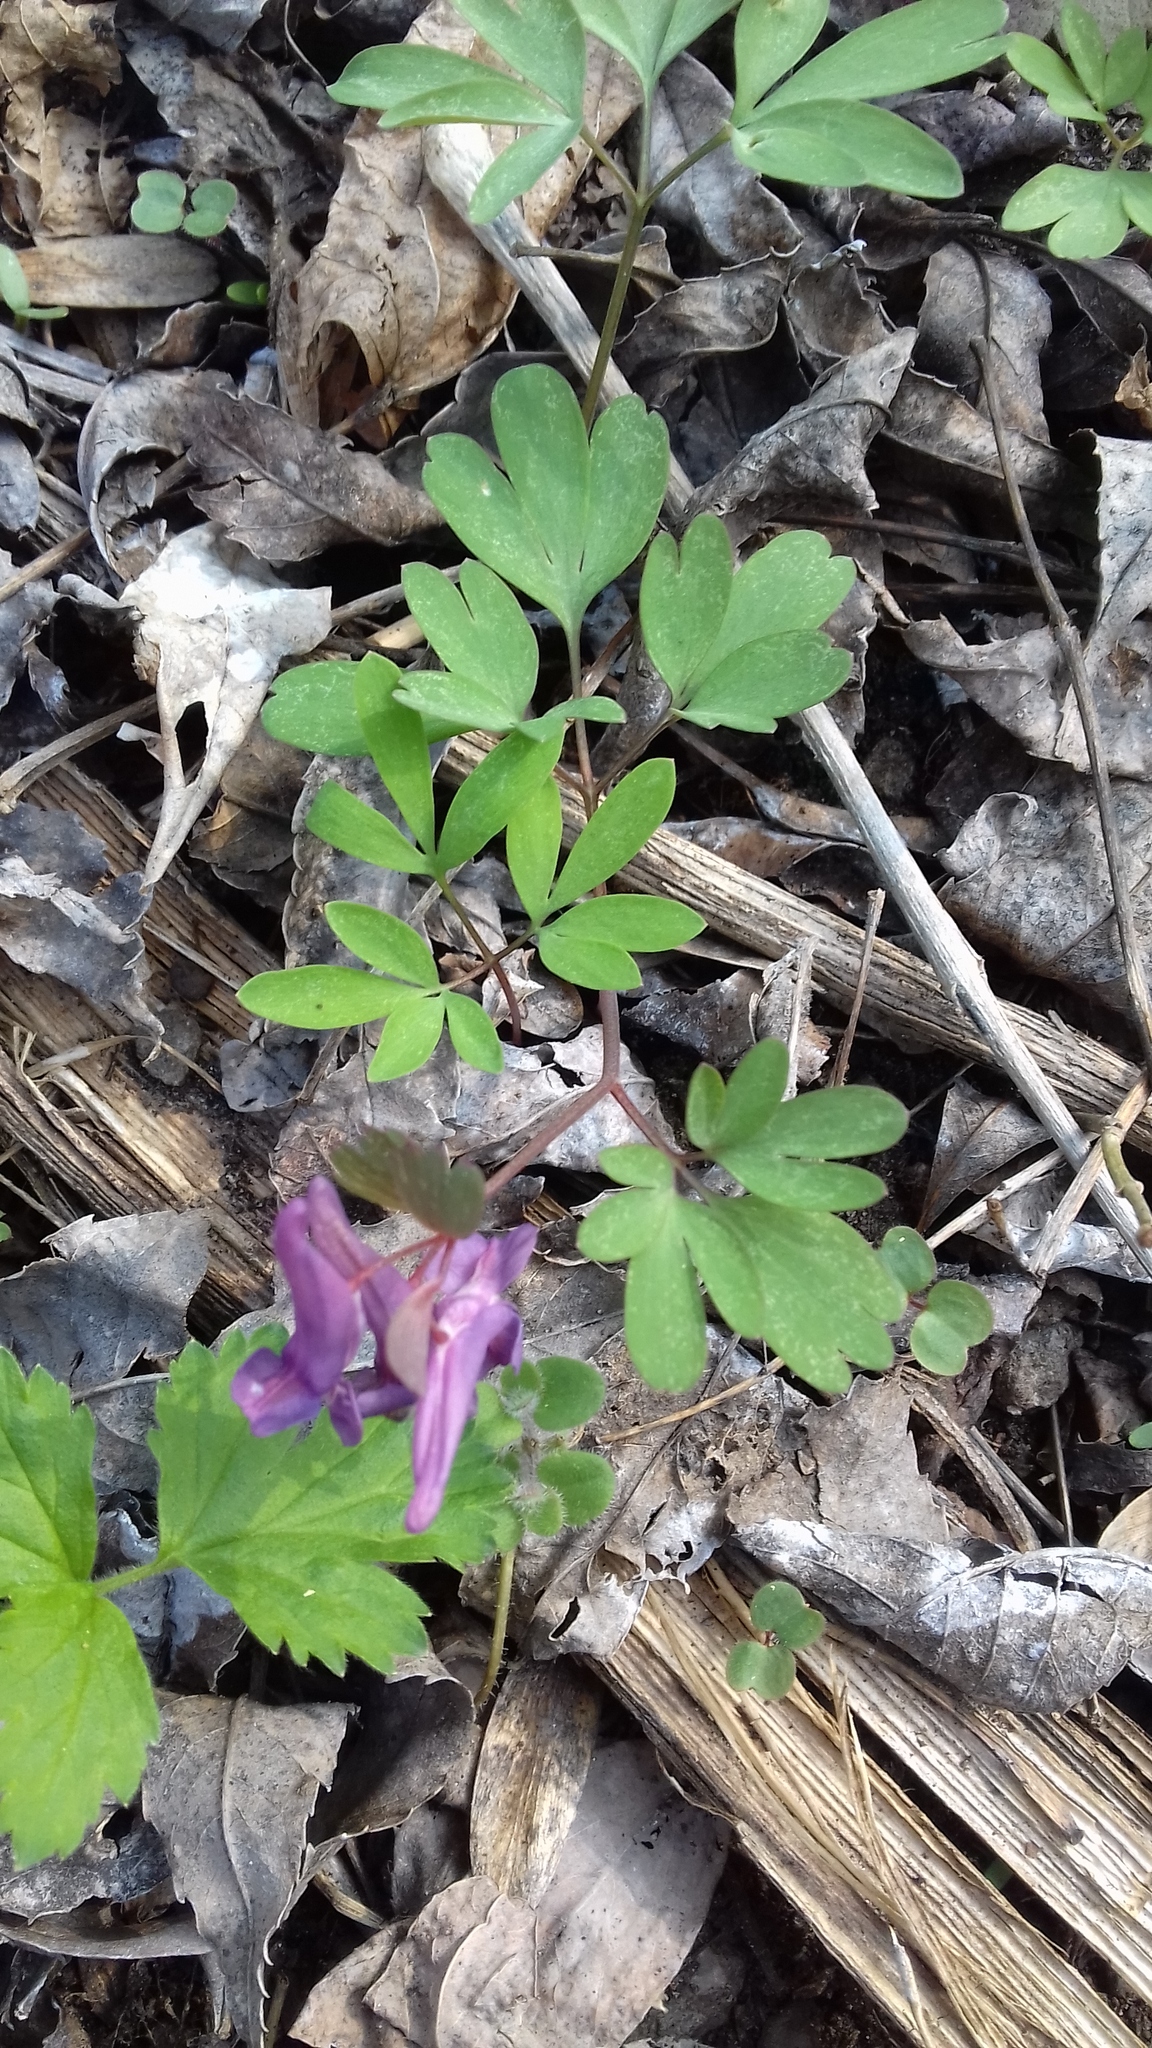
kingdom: Plantae
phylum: Tracheophyta
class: Magnoliopsida
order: Ranunculales
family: Papaveraceae
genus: Corydalis
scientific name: Corydalis solida
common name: Bird-in-a-bush
